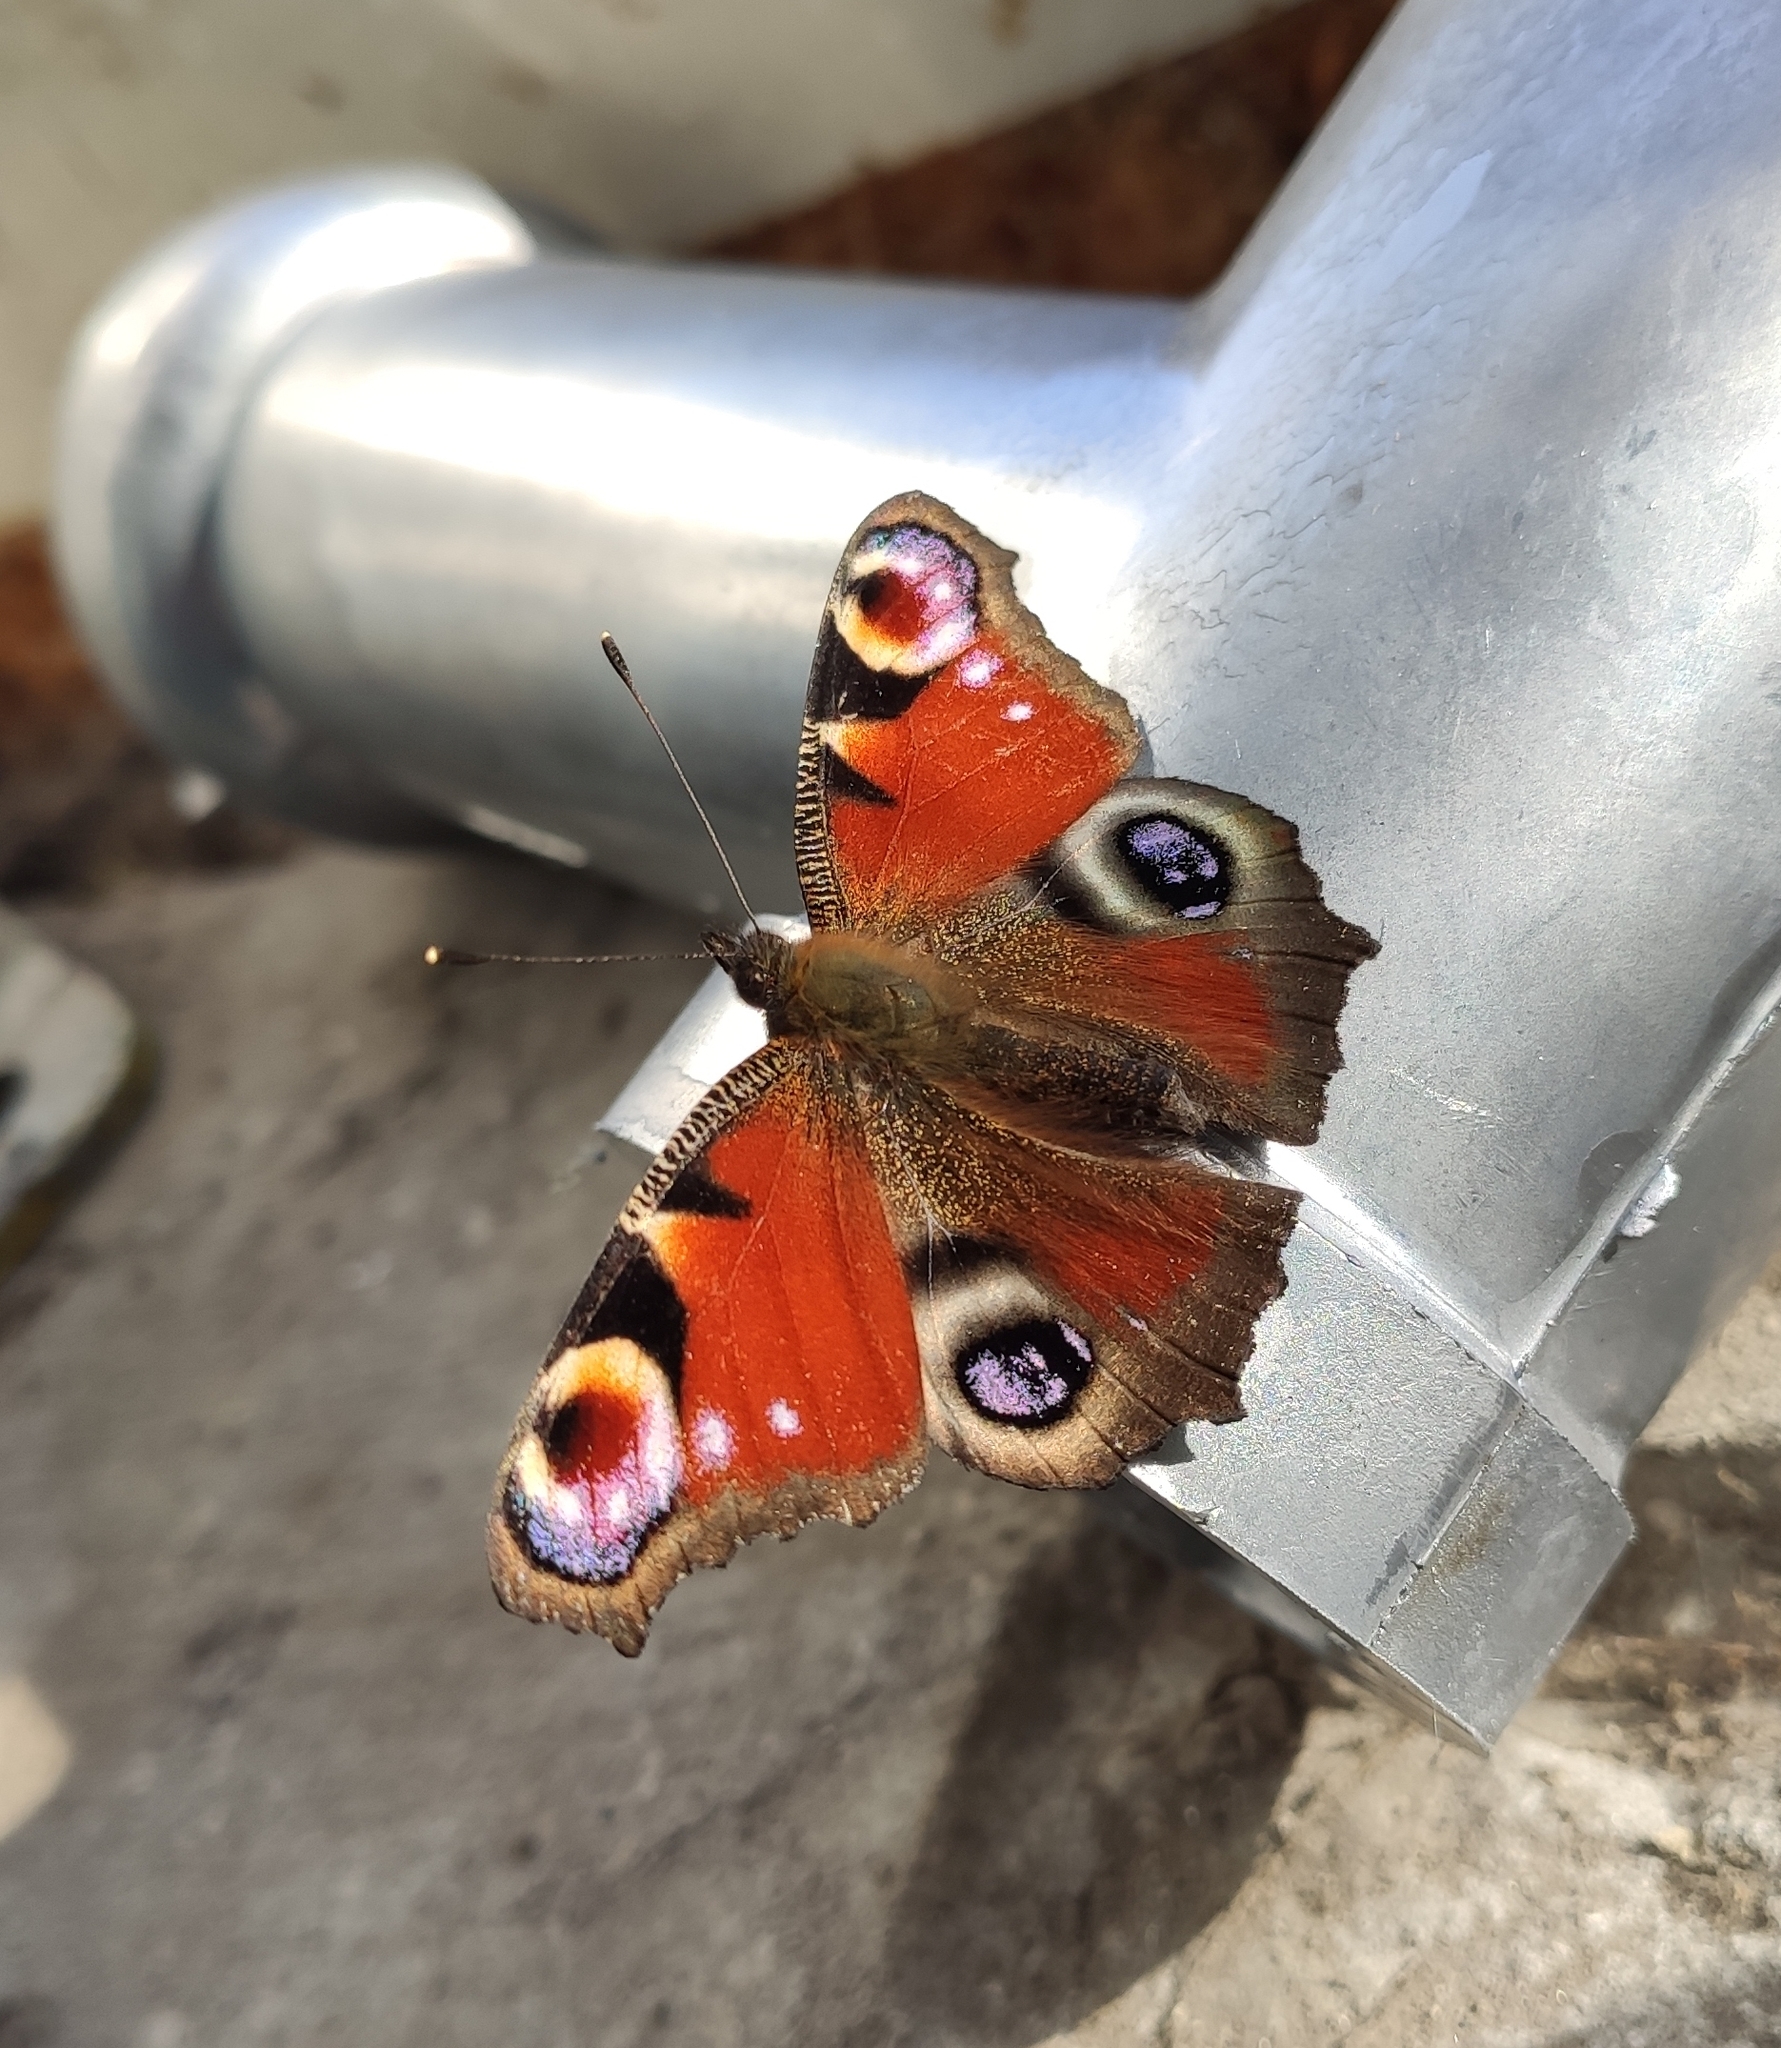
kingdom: Animalia
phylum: Arthropoda
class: Insecta
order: Lepidoptera
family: Nymphalidae
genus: Aglais
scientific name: Aglais io
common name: Peacock
